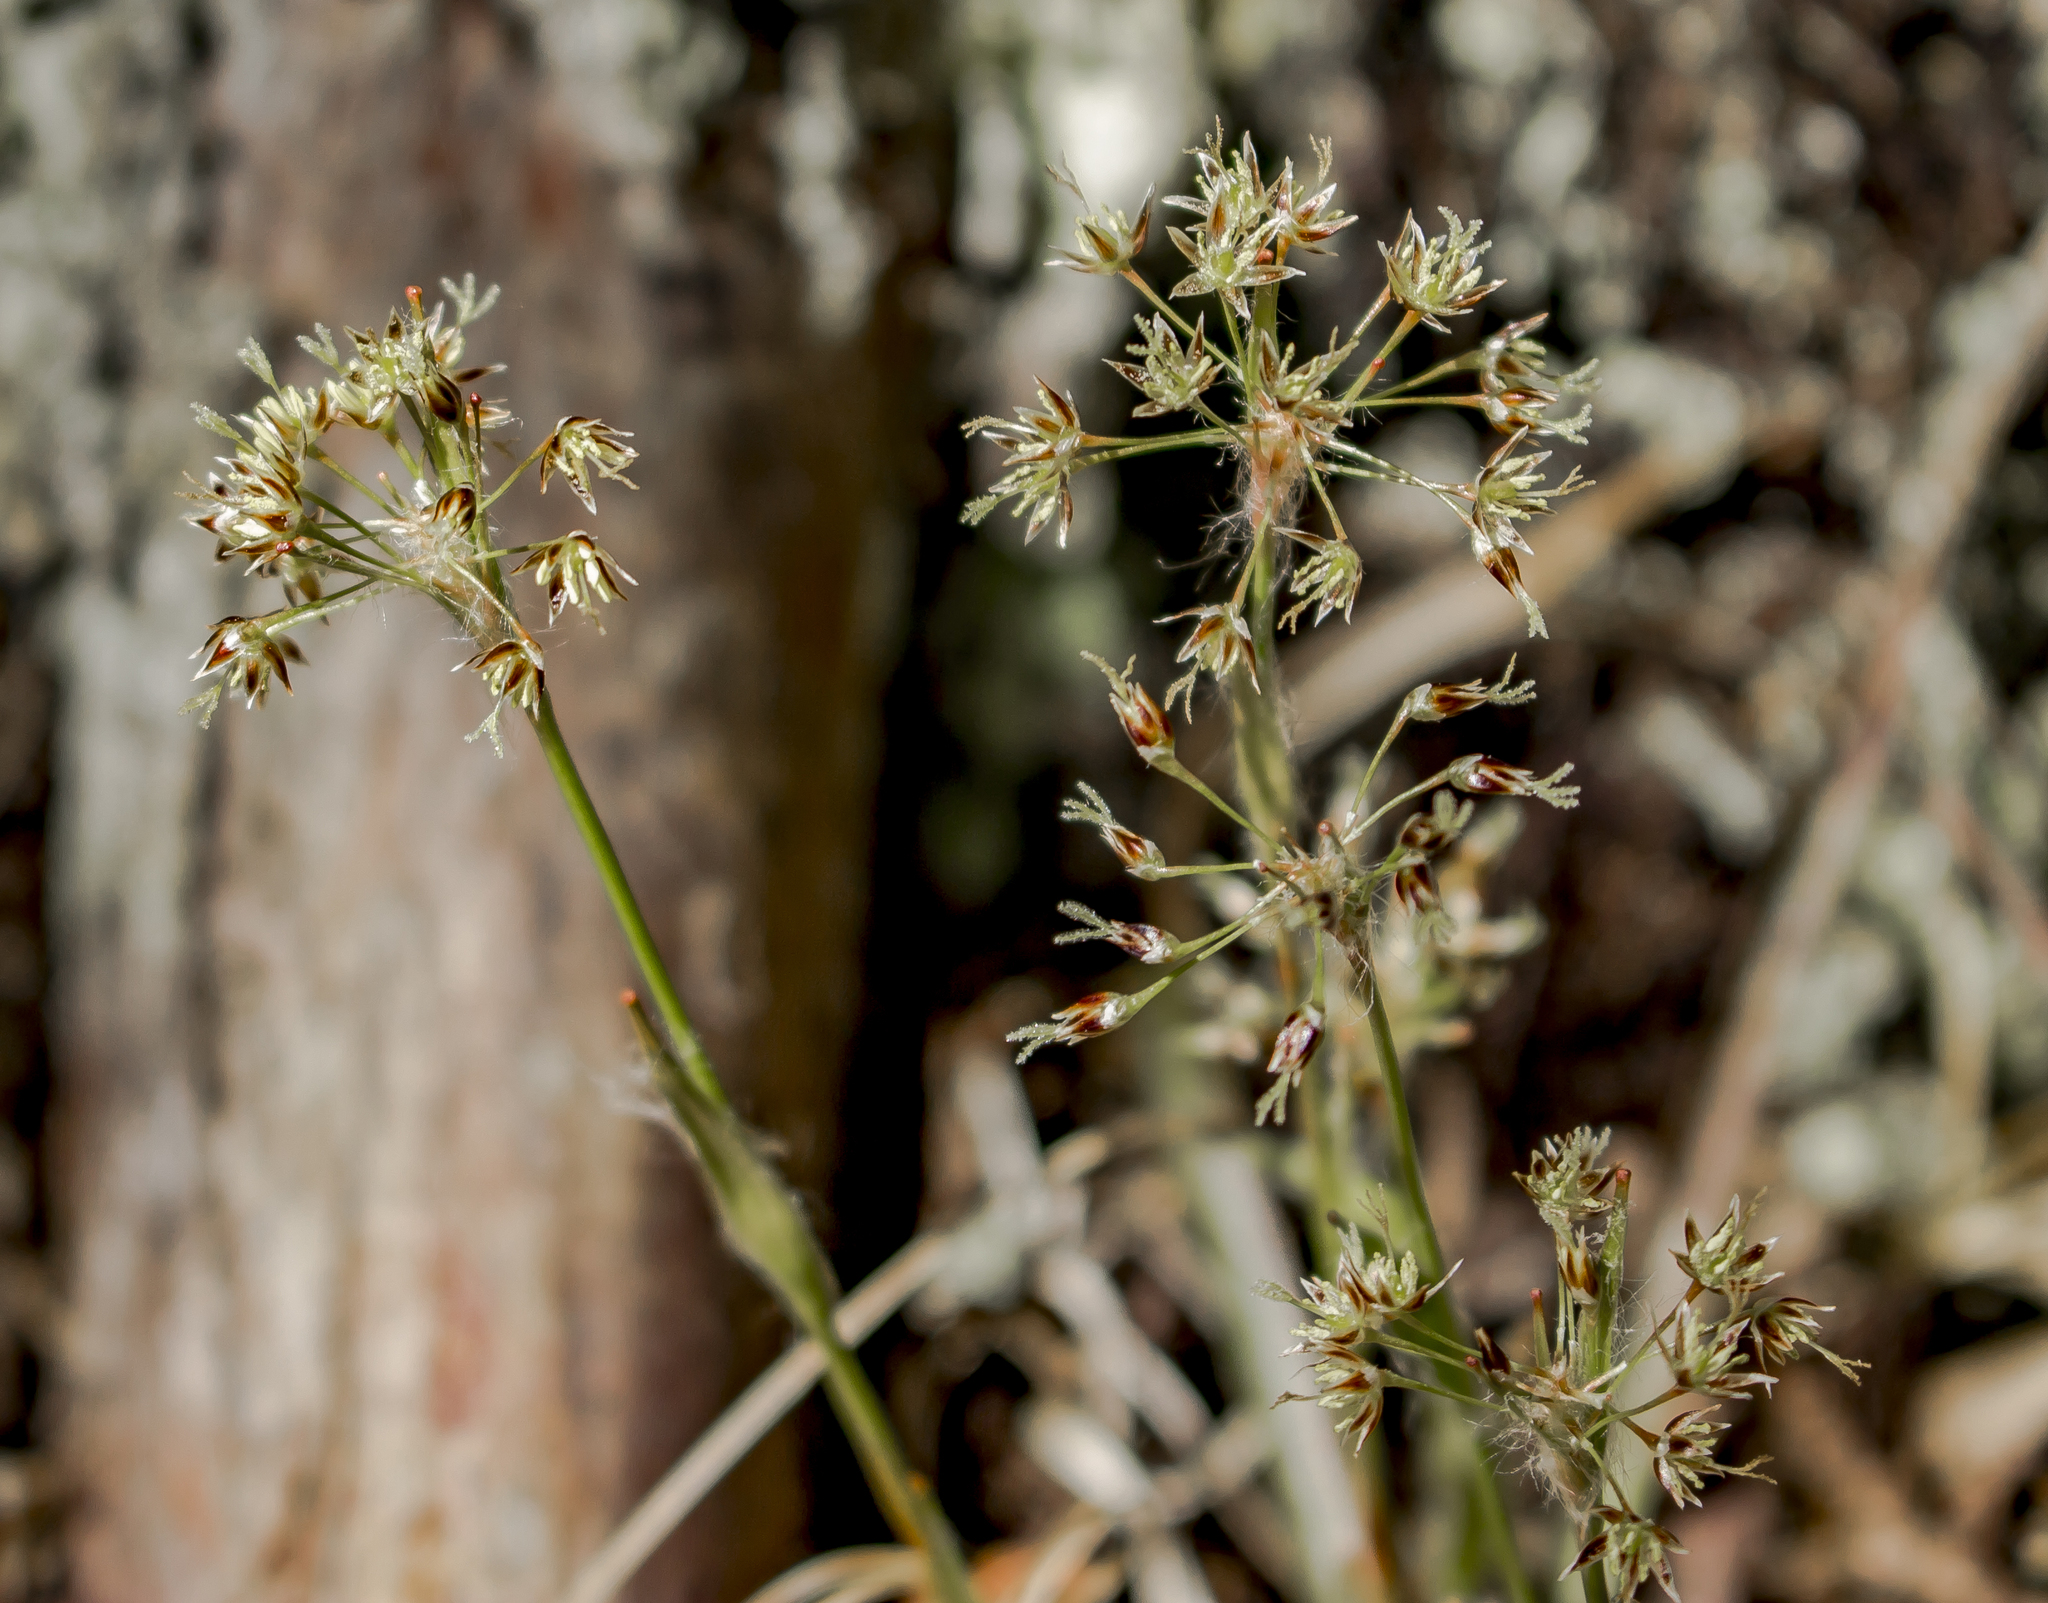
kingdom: Plantae
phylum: Tracheophyta
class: Liliopsida
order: Poales
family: Juncaceae
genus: Luzula
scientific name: Luzula acuminata
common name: Hairy woodrush
